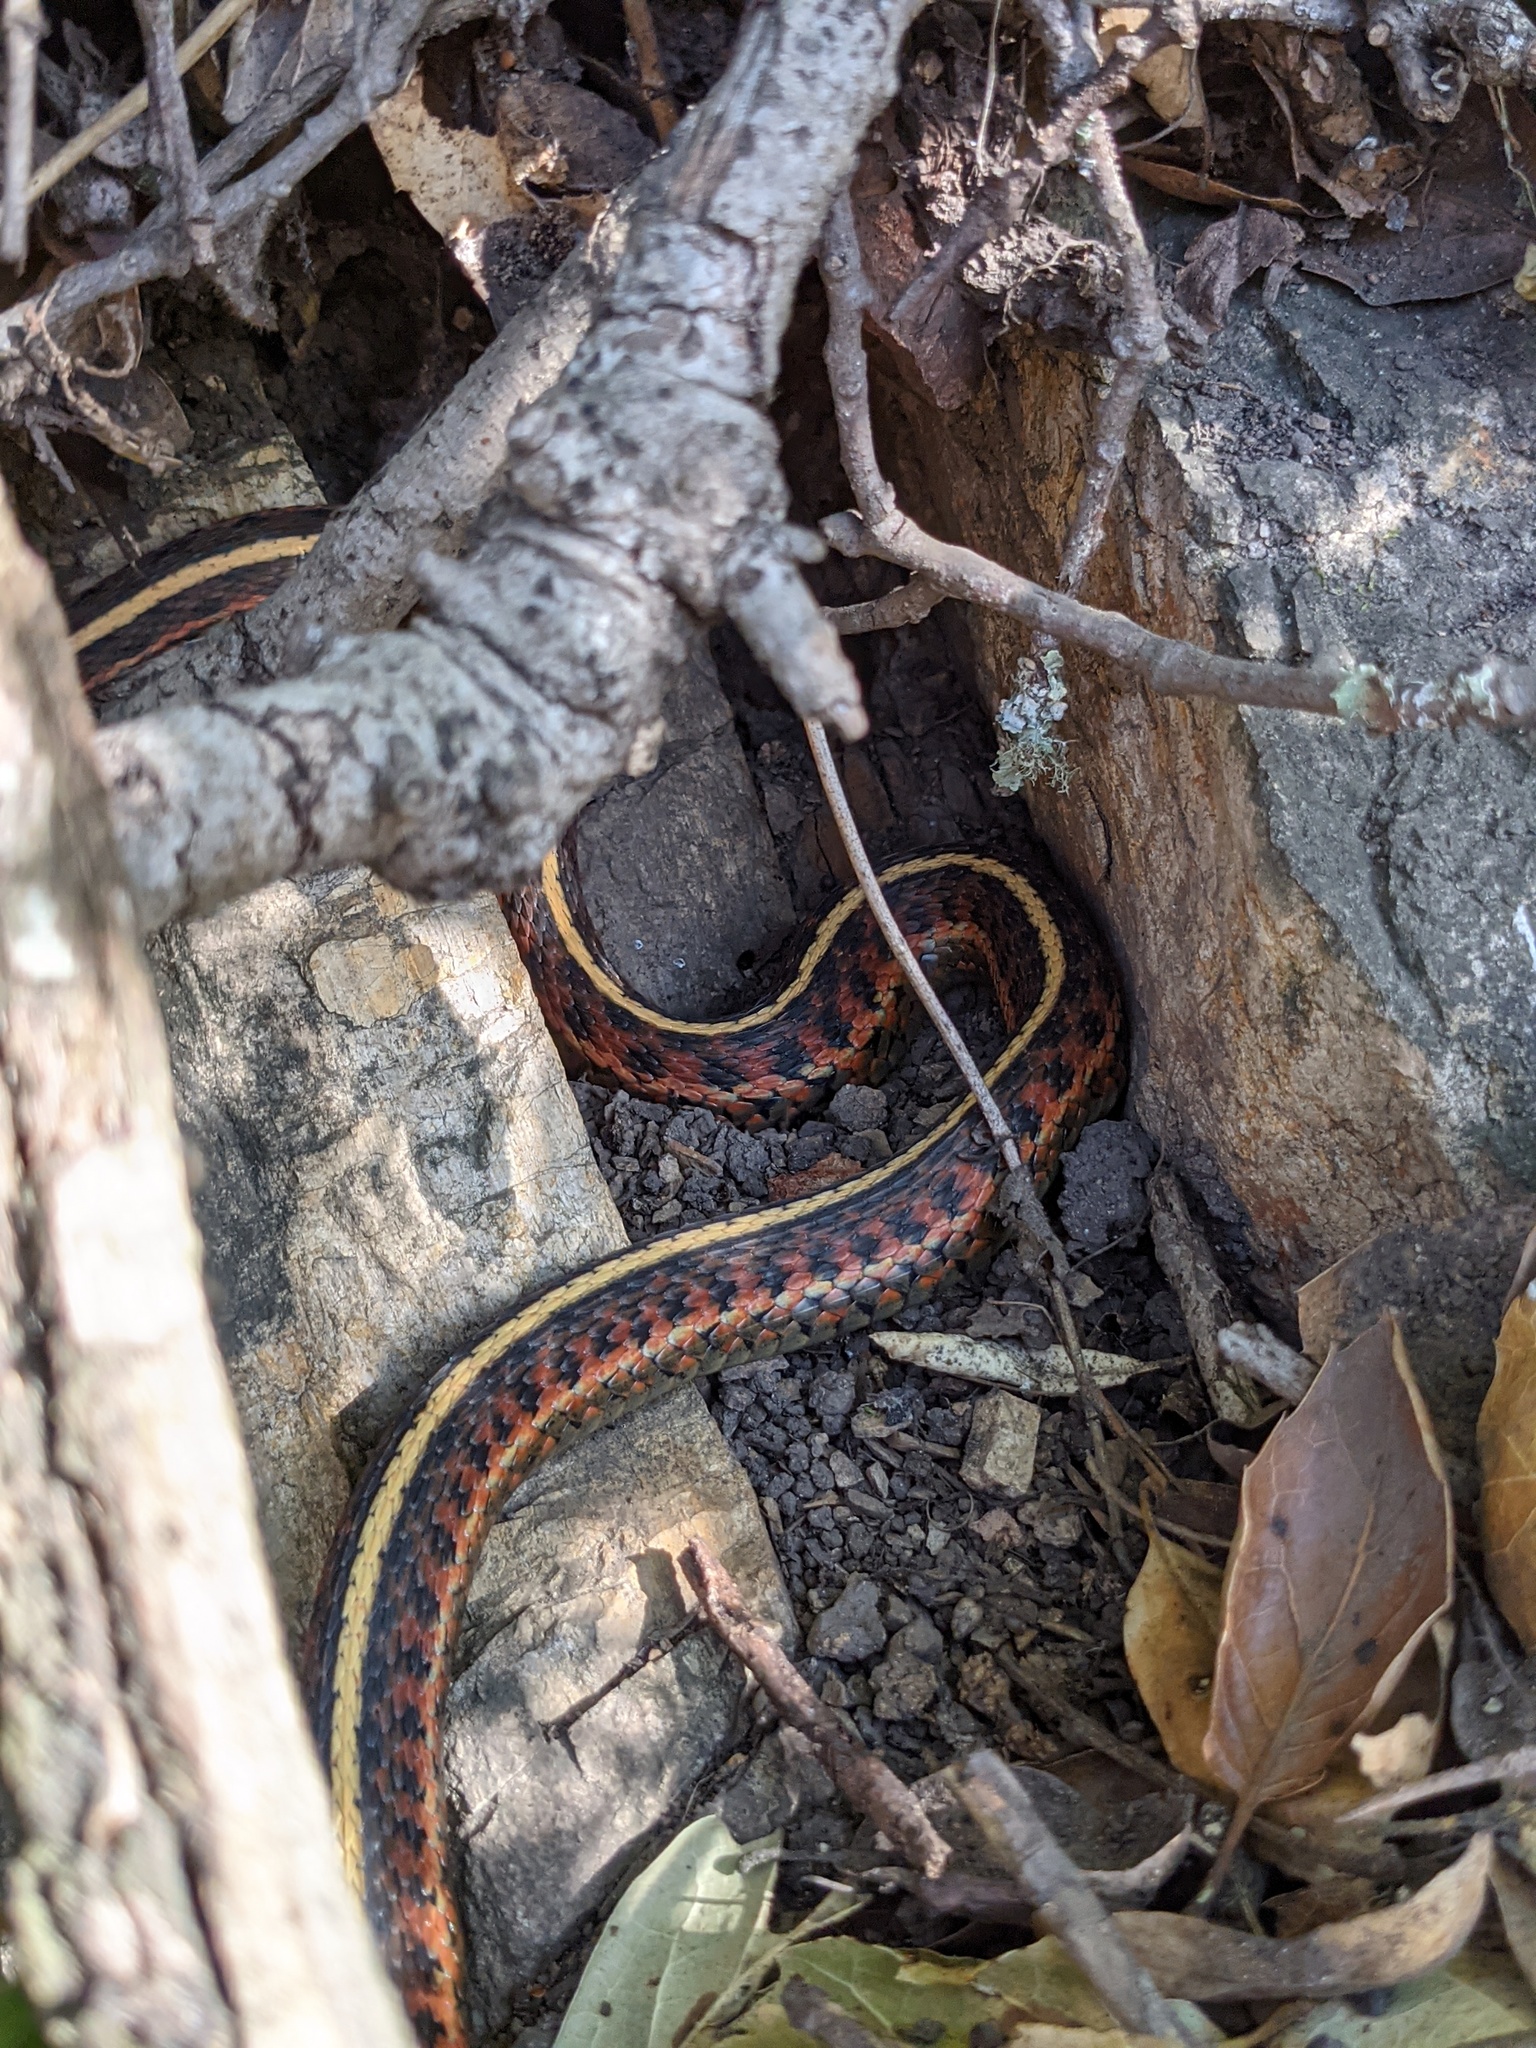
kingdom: Animalia
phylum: Chordata
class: Squamata
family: Colubridae
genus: Thamnophis
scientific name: Thamnophis elegans
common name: Western terrestrial garter snake
